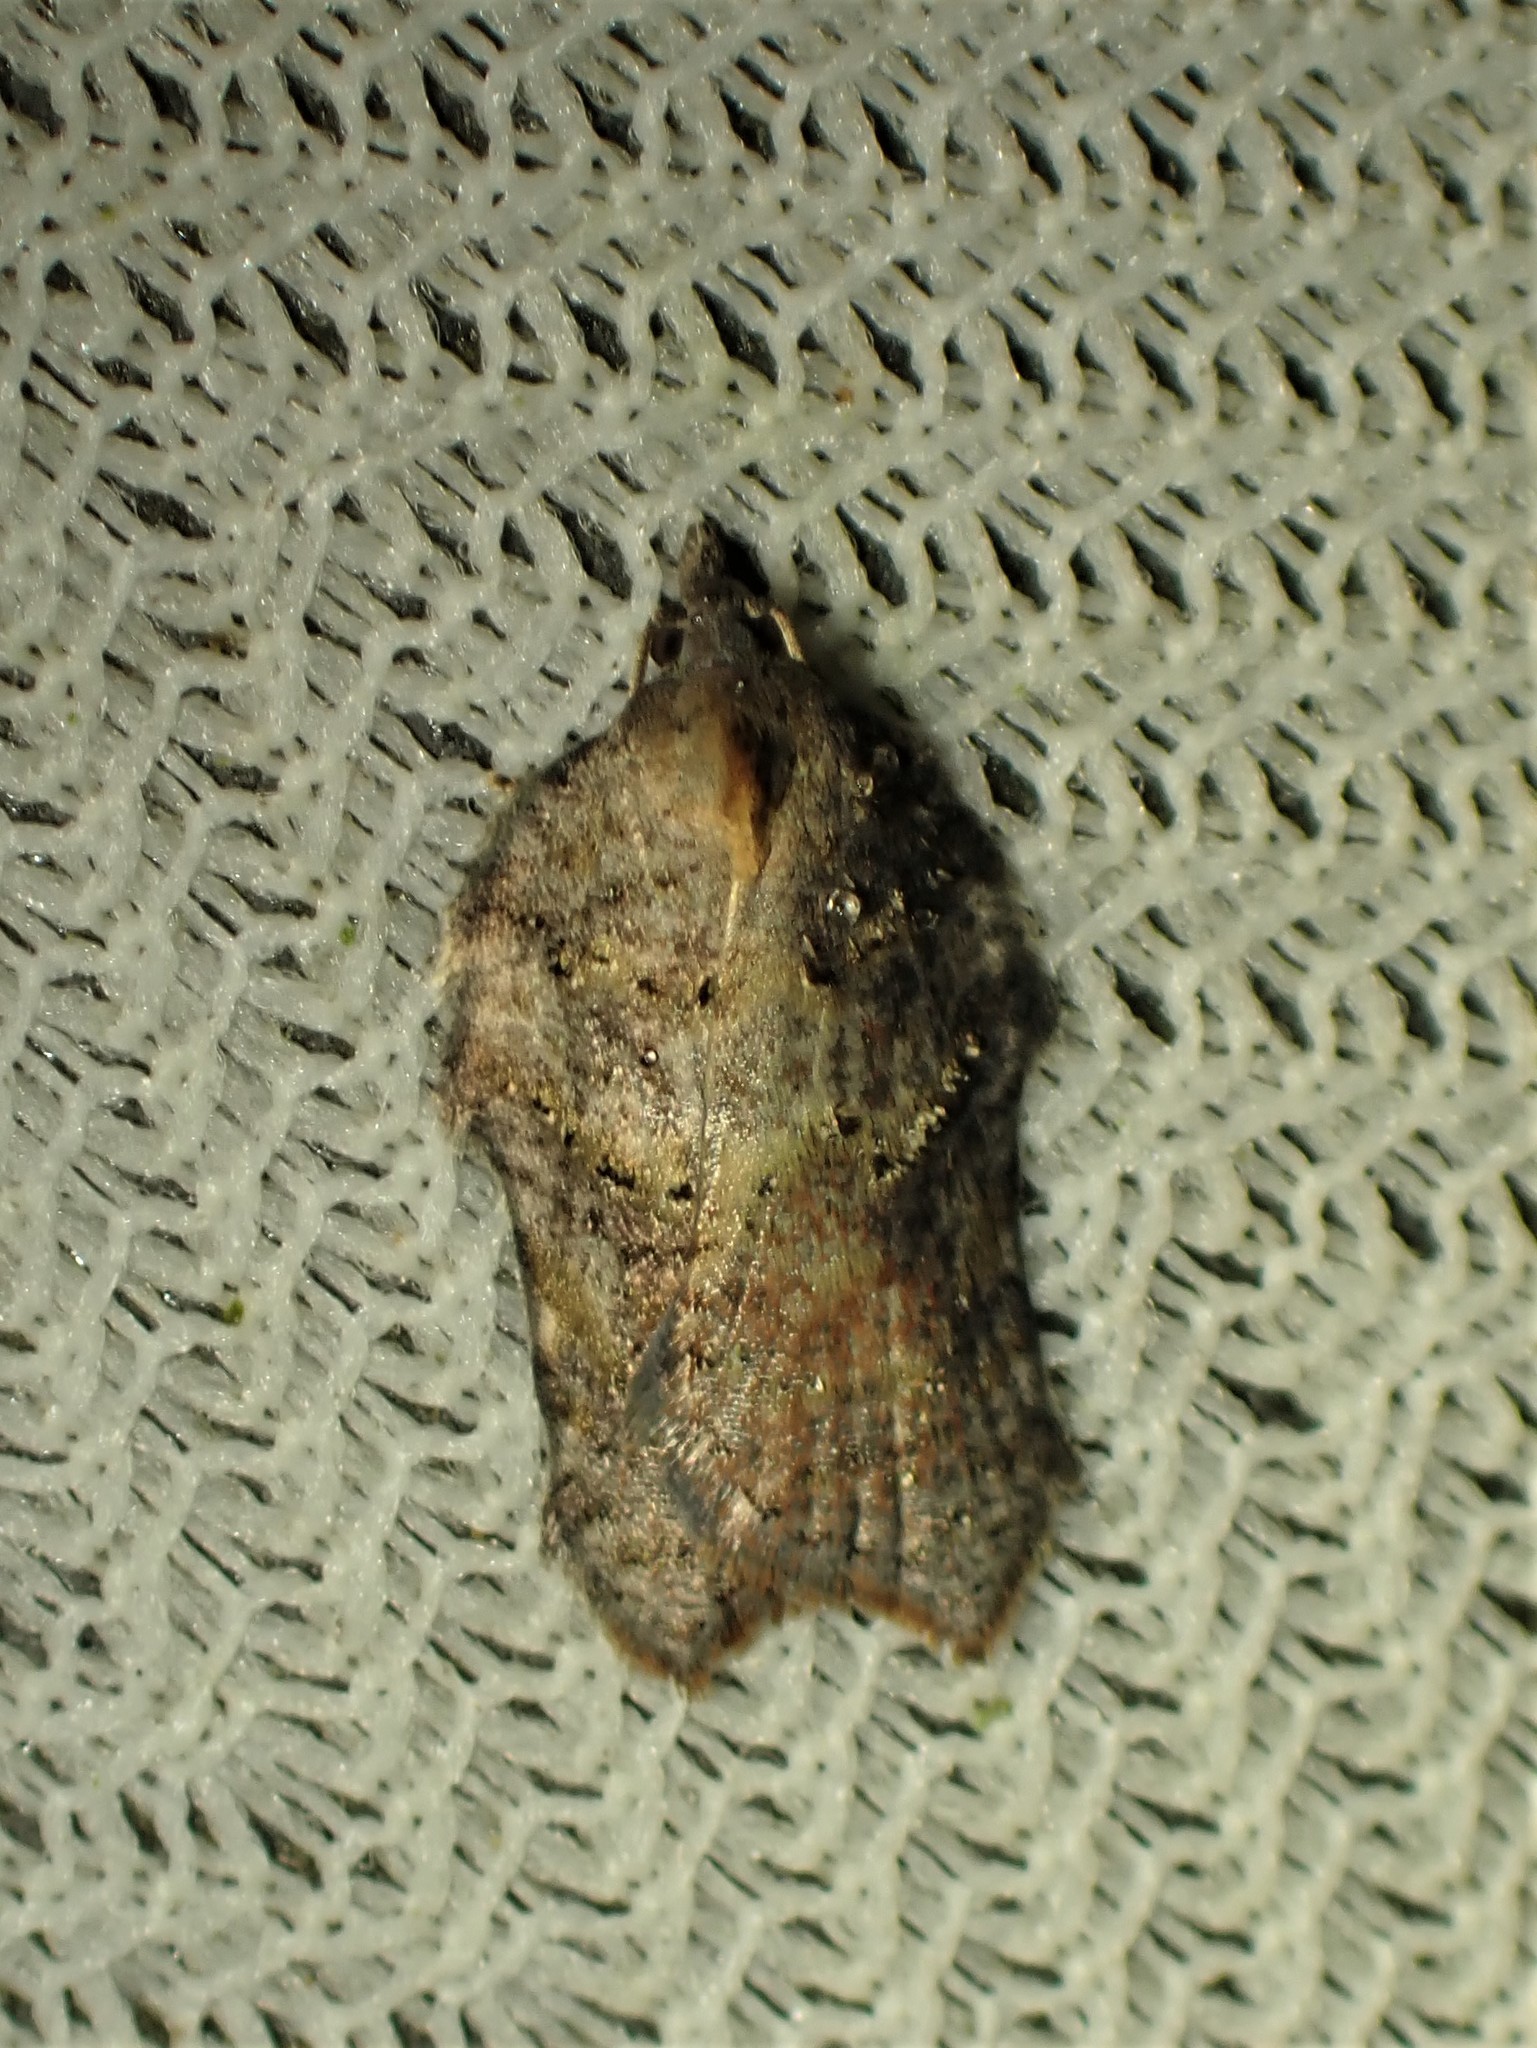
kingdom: Animalia
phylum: Arthropoda
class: Insecta
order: Lepidoptera
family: Tortricidae
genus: Acleris
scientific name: Acleris effractana
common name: Hook-winged tortrix moth
